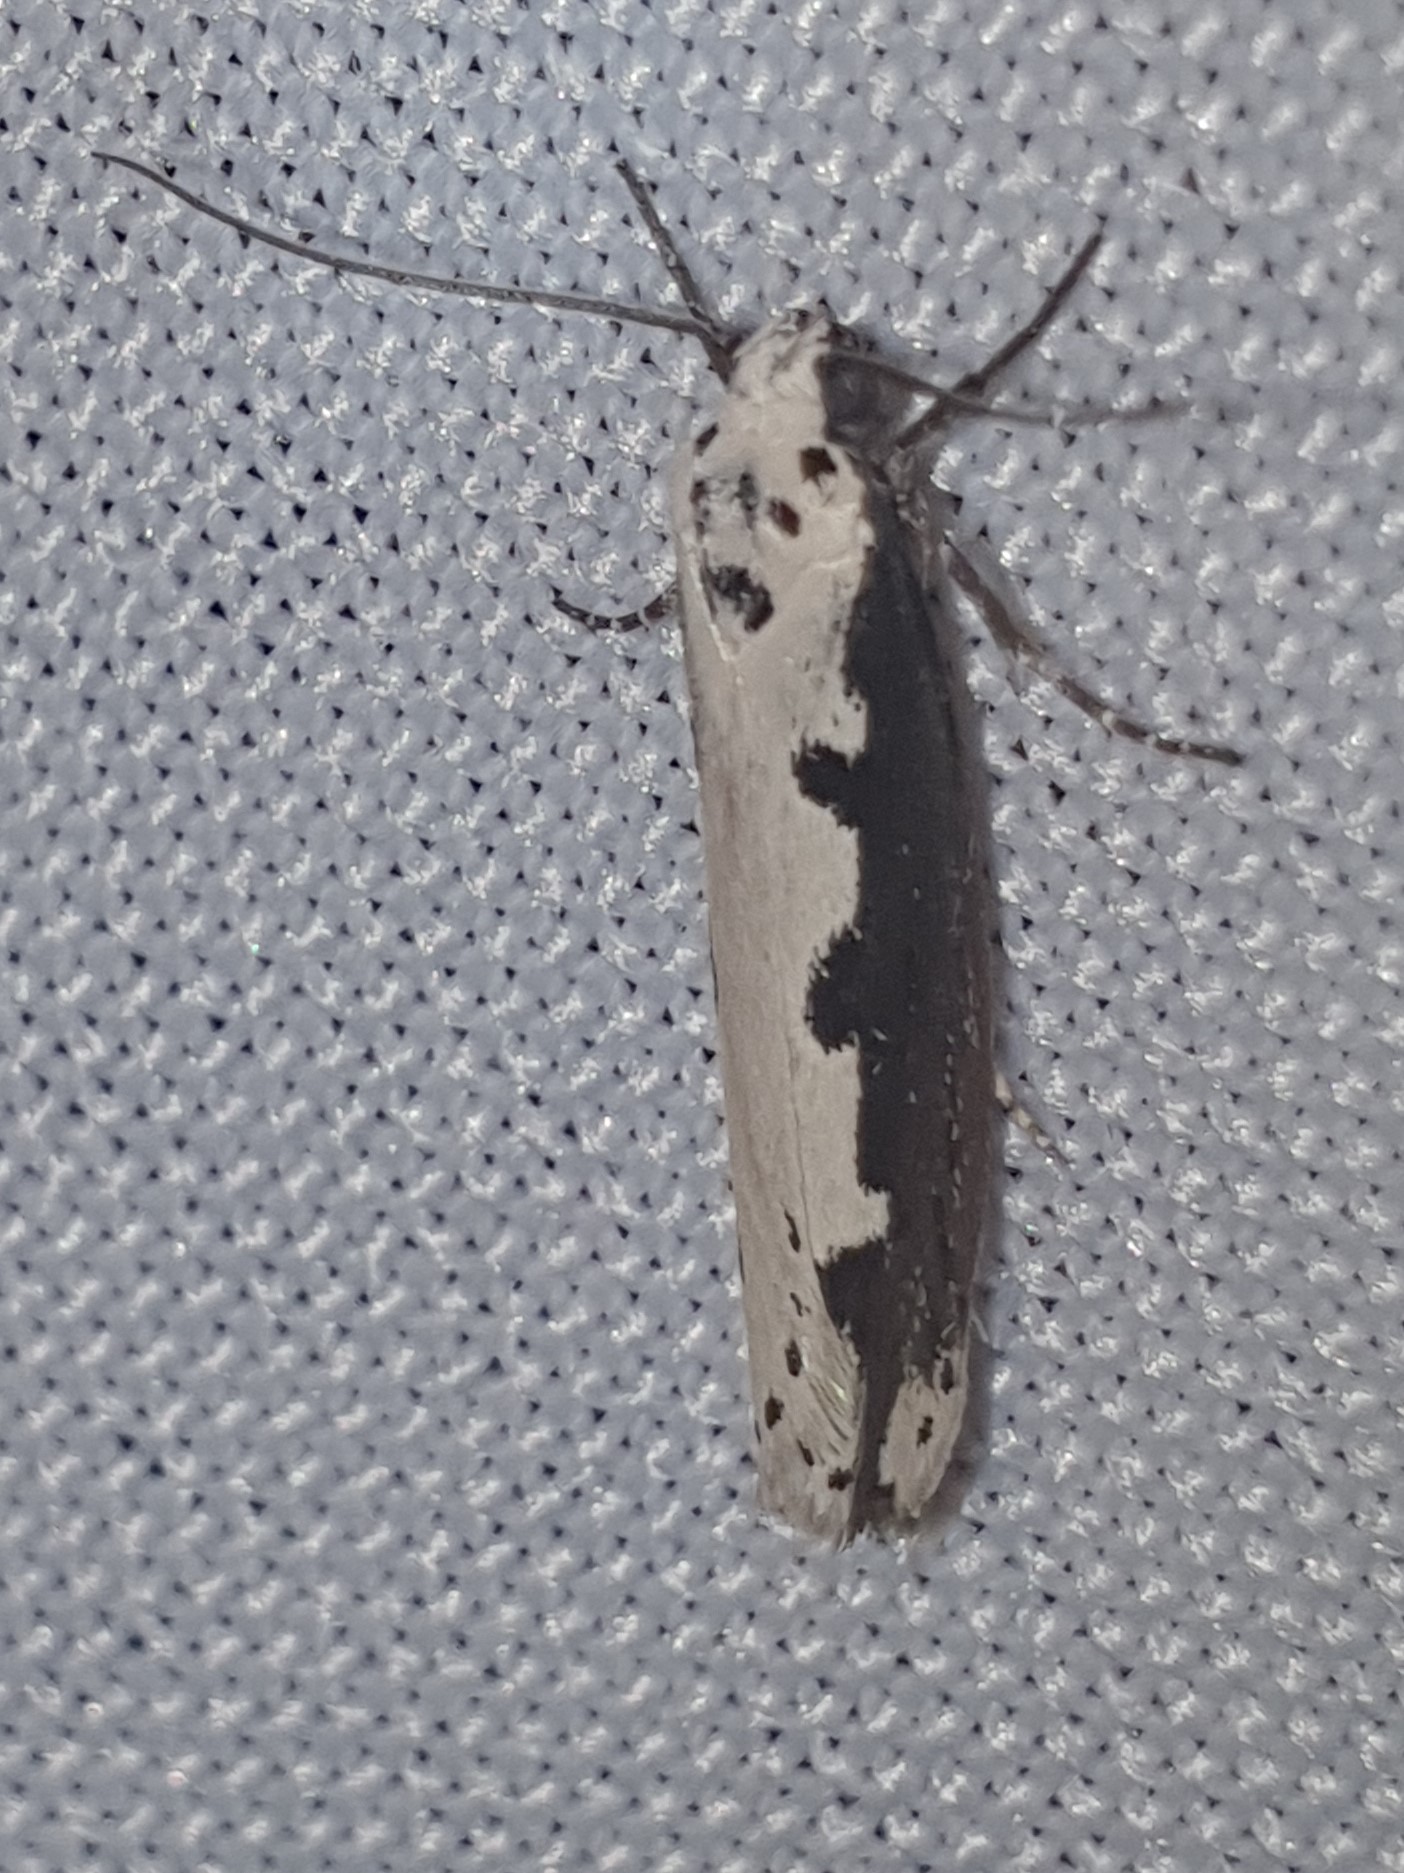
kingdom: Animalia
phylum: Arthropoda
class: Insecta
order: Lepidoptera
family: Ethmiidae
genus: Ethmia
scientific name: Ethmia bipunctella
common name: Bordered ermel
